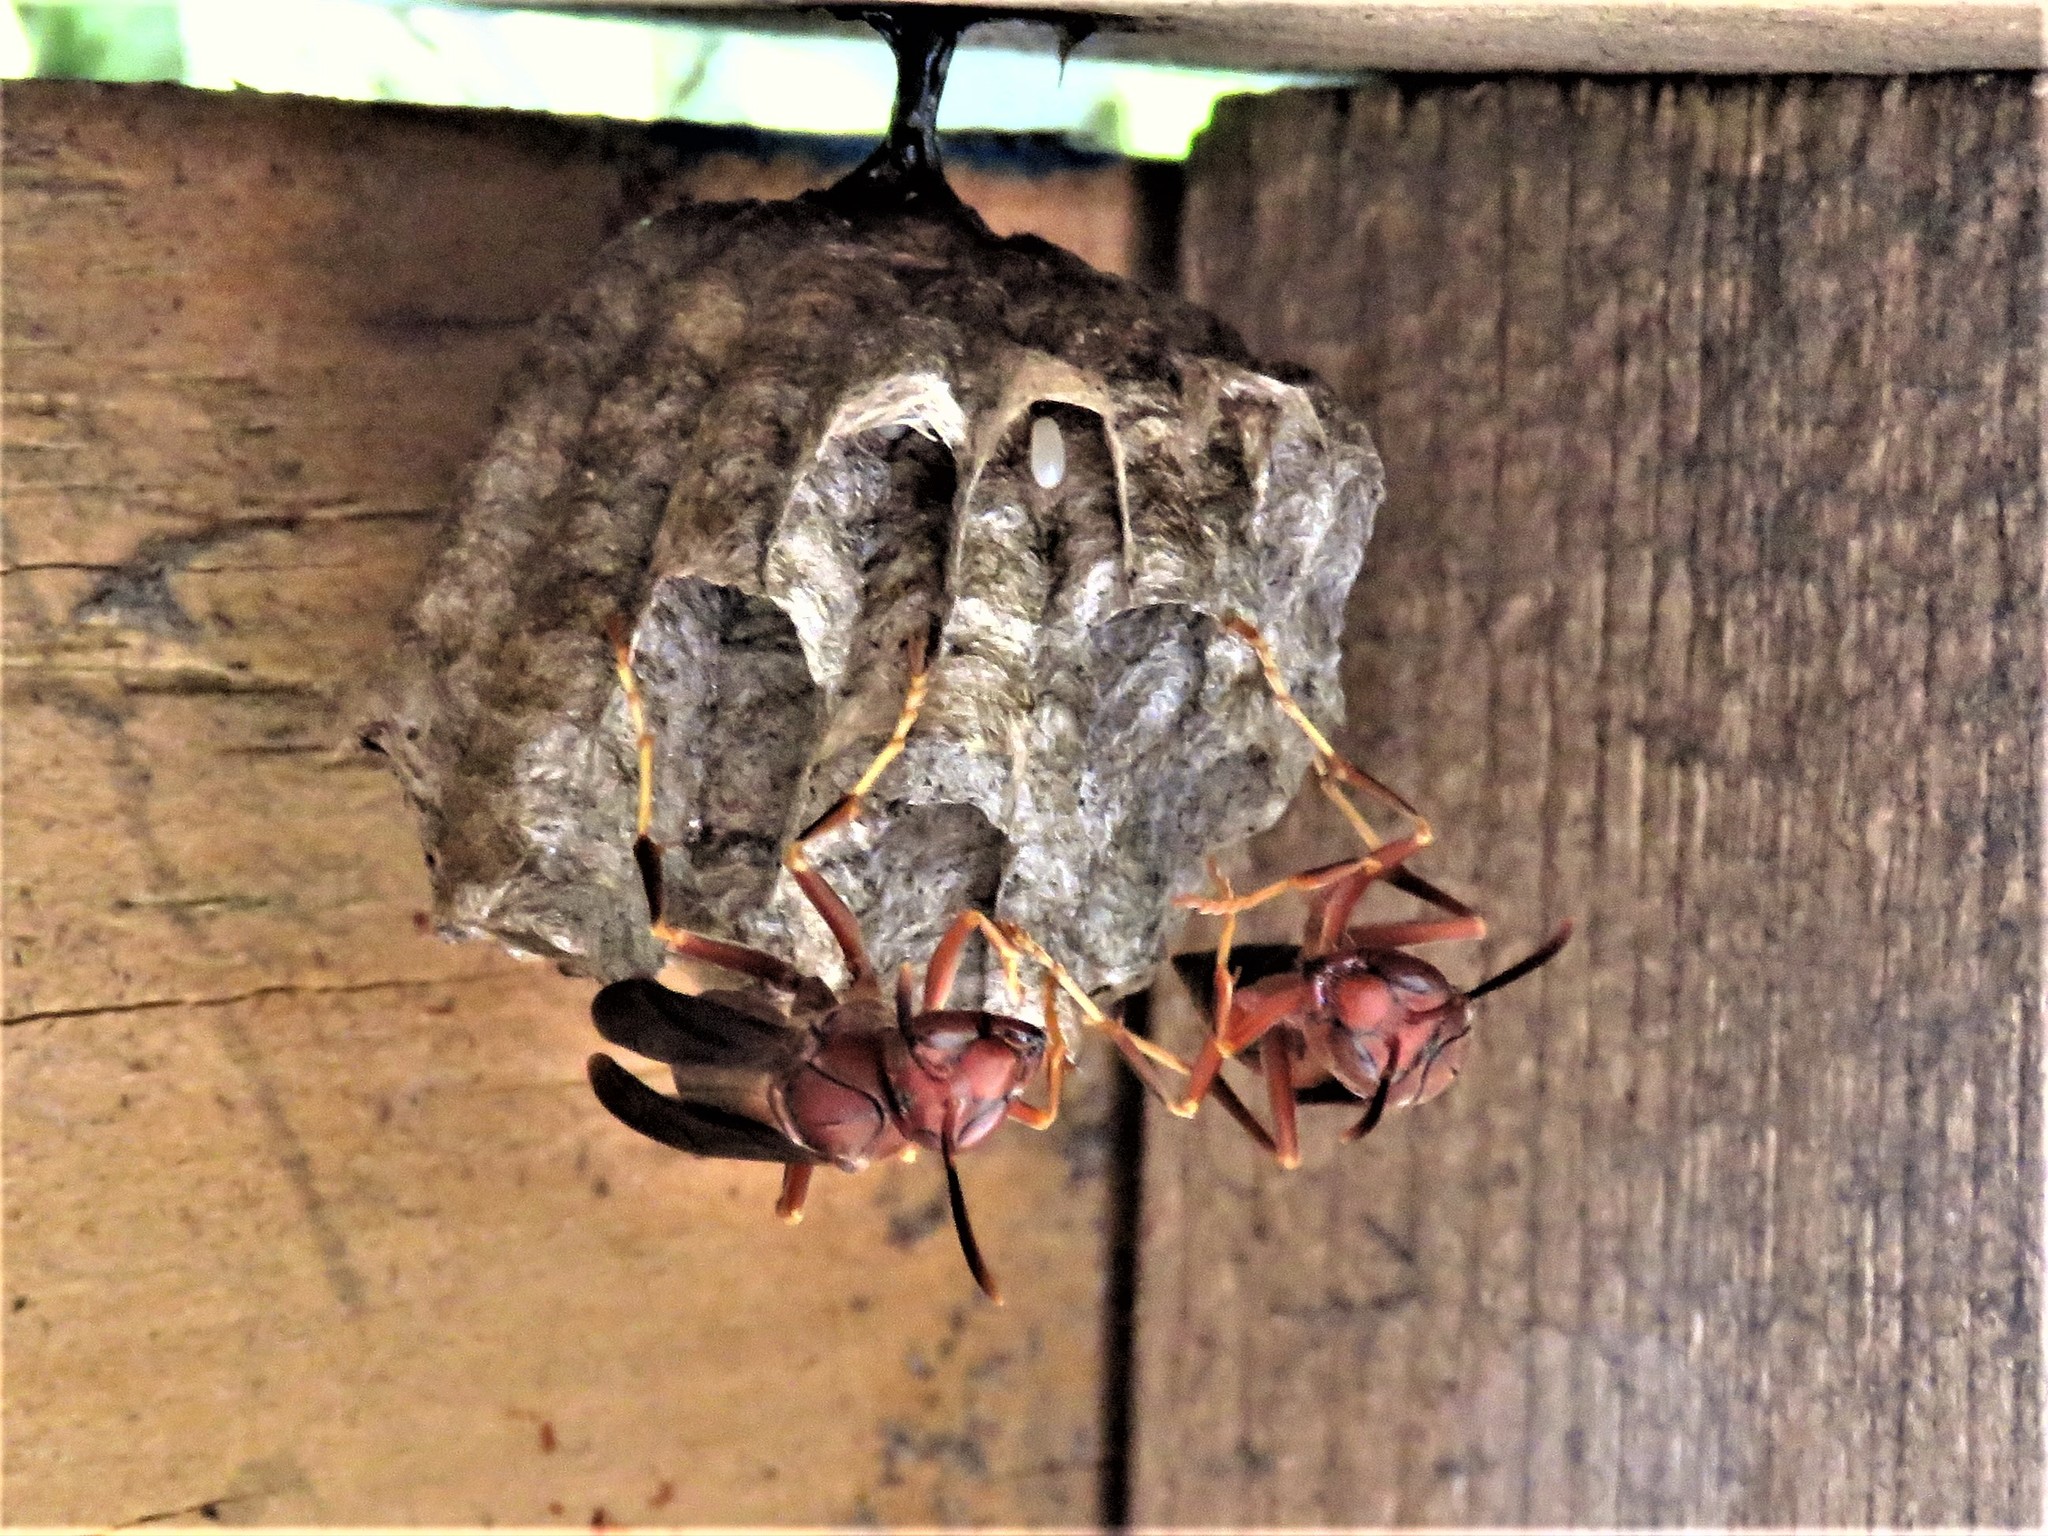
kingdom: Animalia
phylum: Arthropoda
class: Insecta
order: Hymenoptera
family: Eumenidae
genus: Polistes
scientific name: Polistes metricus
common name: Metric paper wasp
